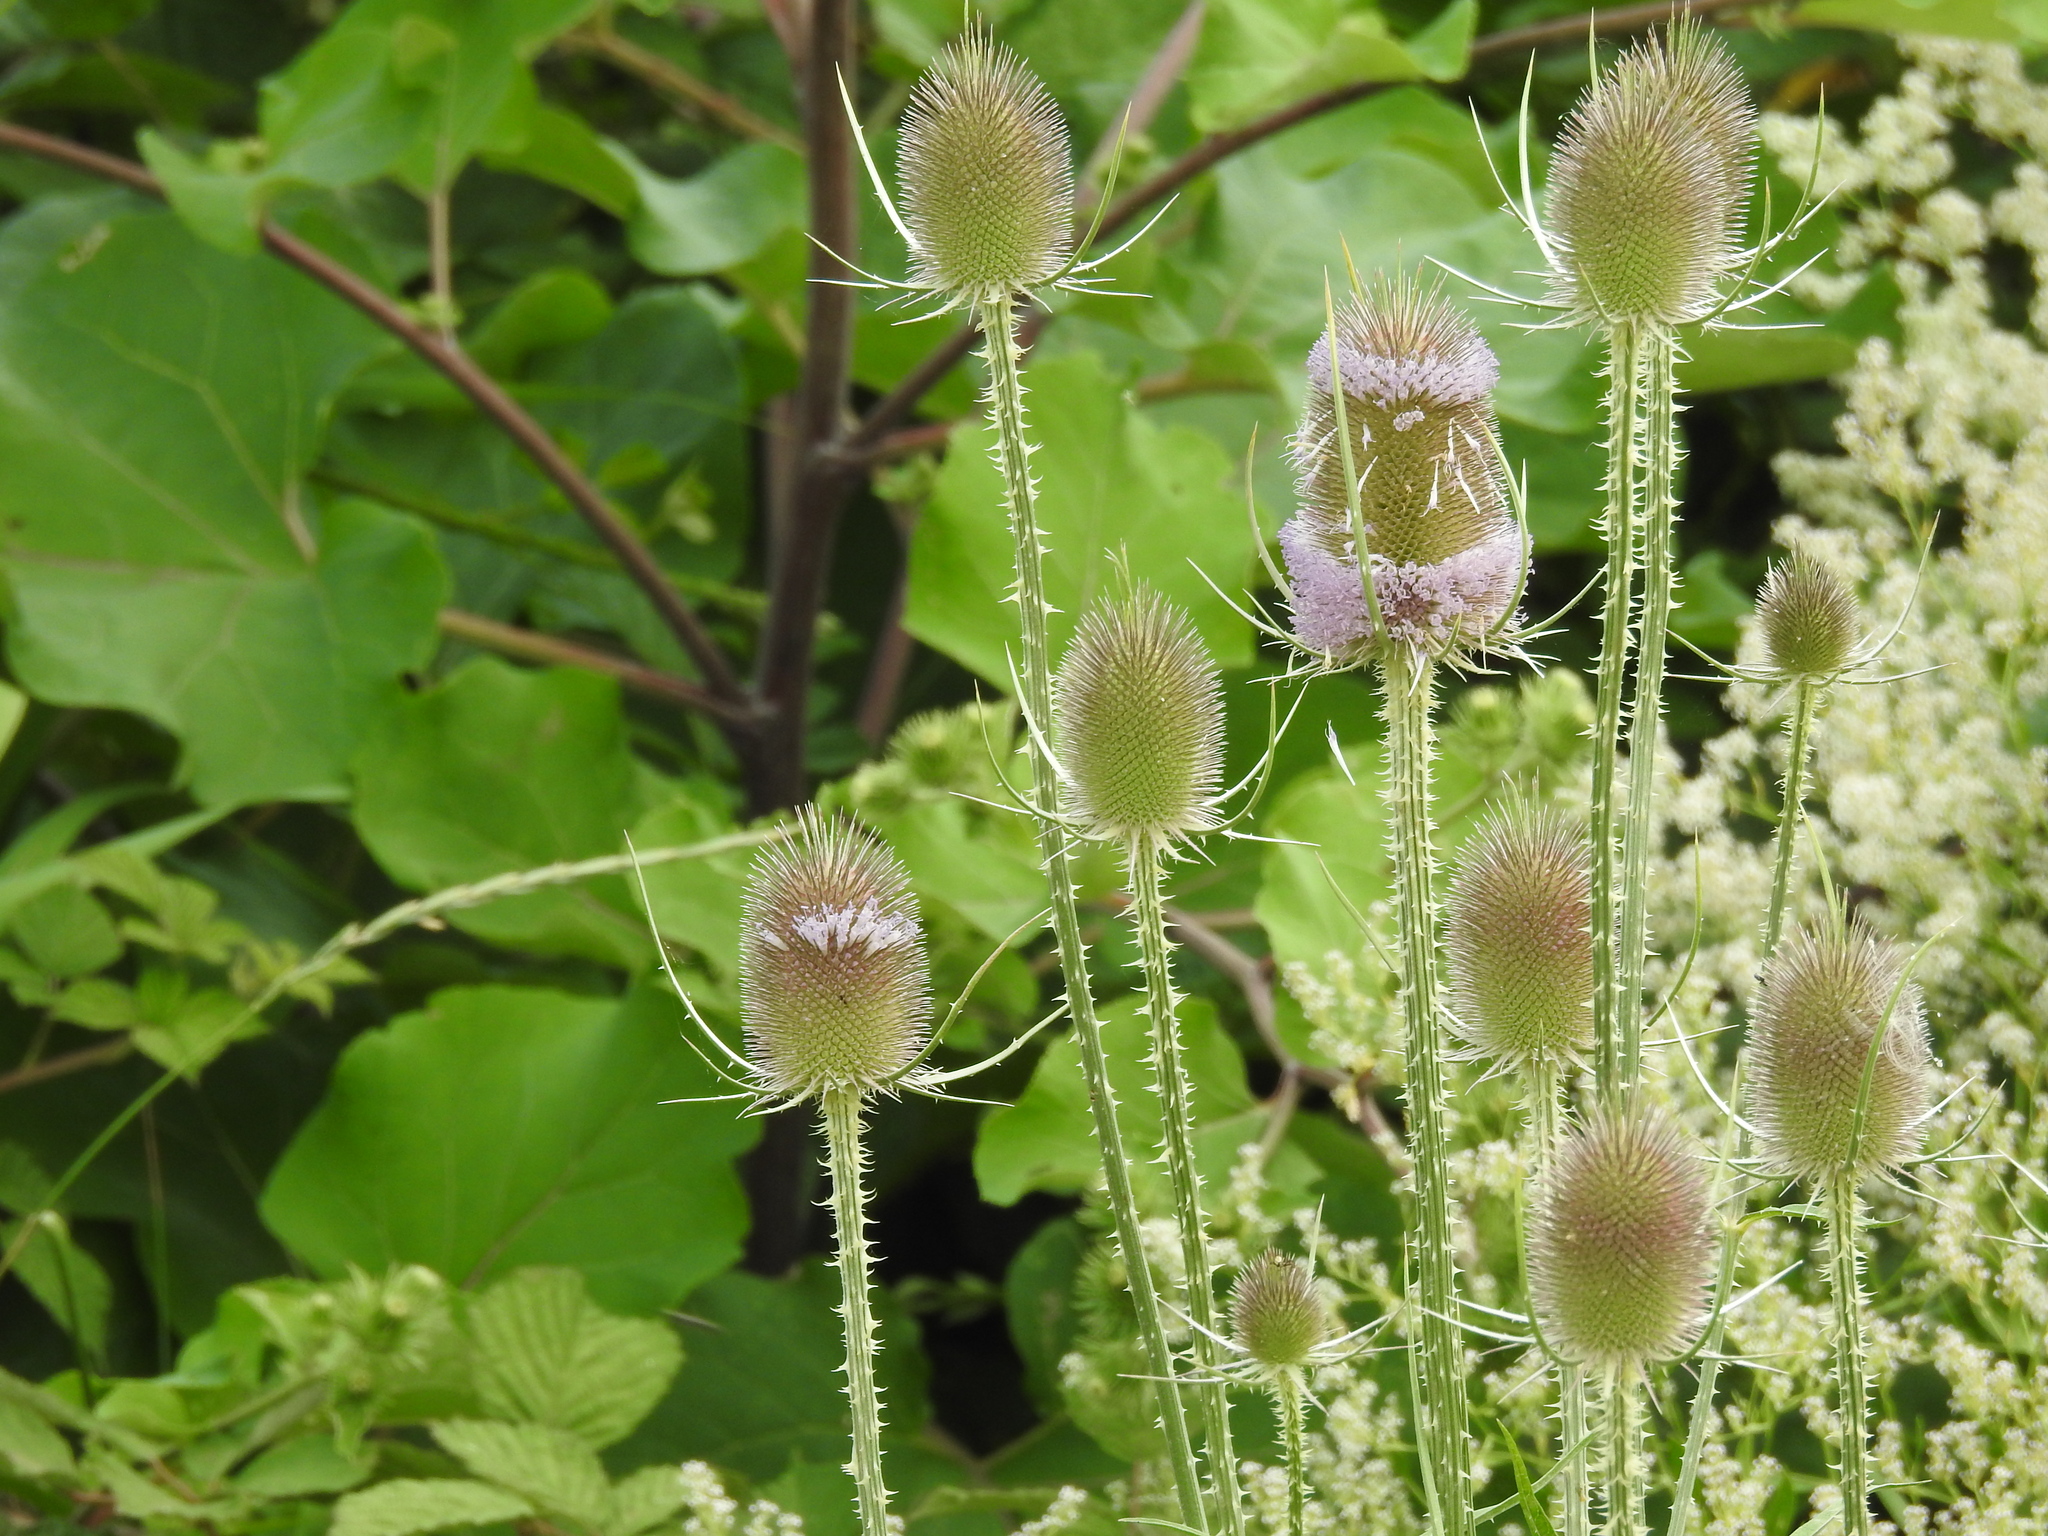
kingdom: Plantae
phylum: Tracheophyta
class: Magnoliopsida
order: Dipsacales
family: Caprifoliaceae
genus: Dipsacus
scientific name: Dipsacus fullonum
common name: Teasel
